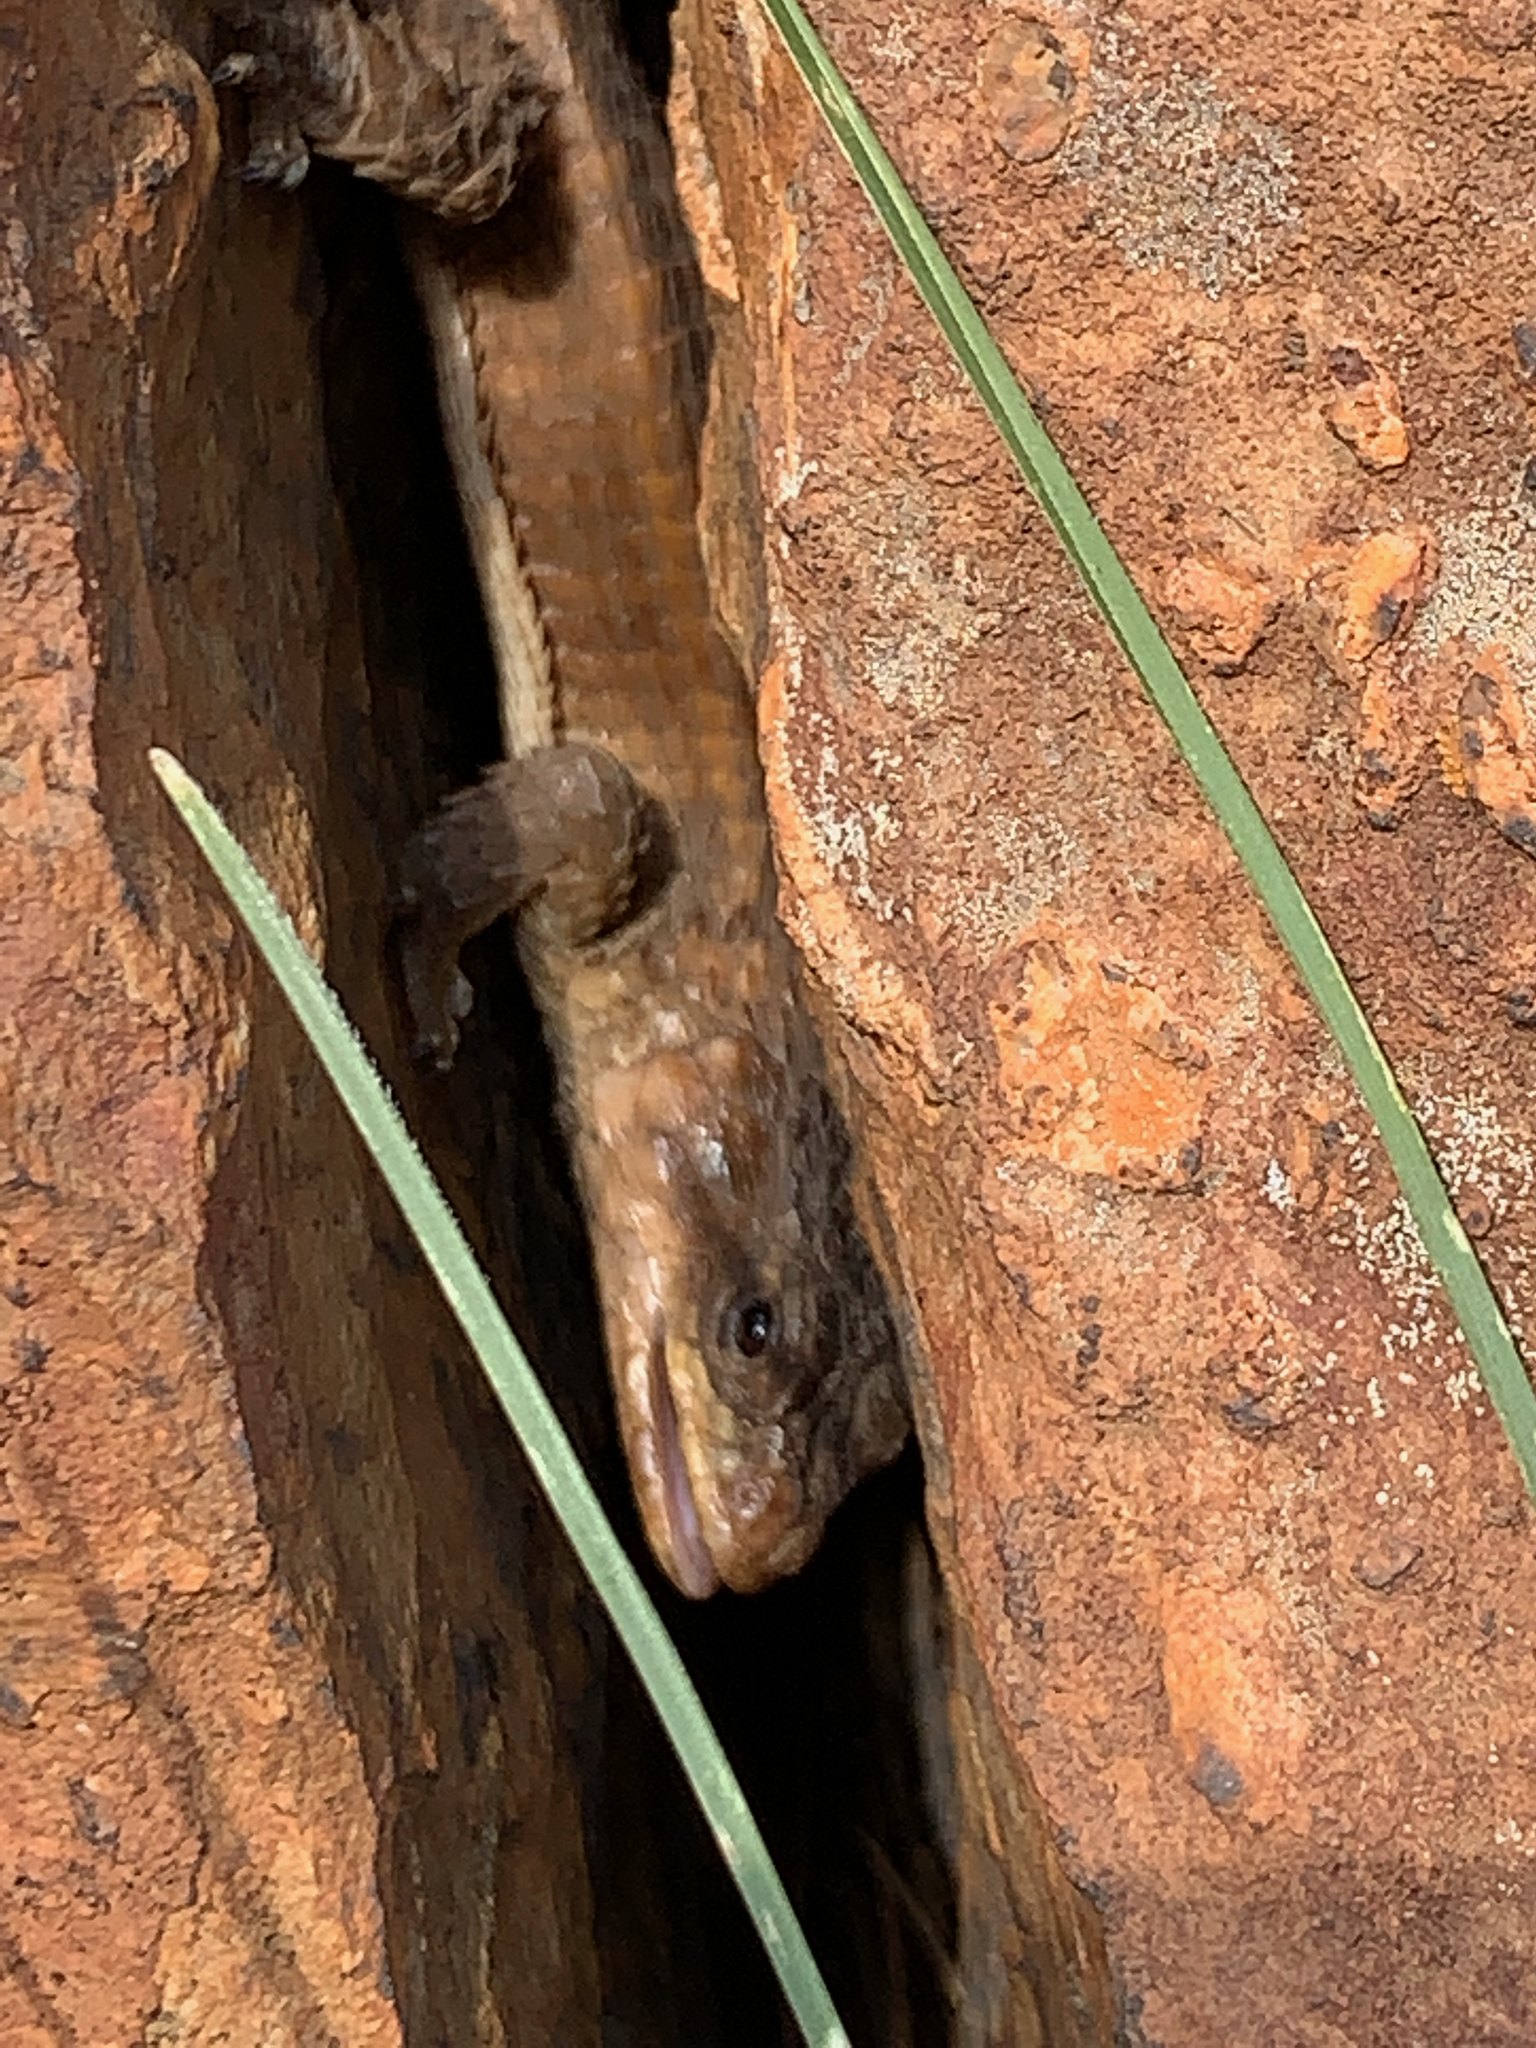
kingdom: Animalia
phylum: Chordata
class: Squamata
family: Cordylidae
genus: Cordylus
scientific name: Cordylus vittifer
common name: Common girdled lizard
